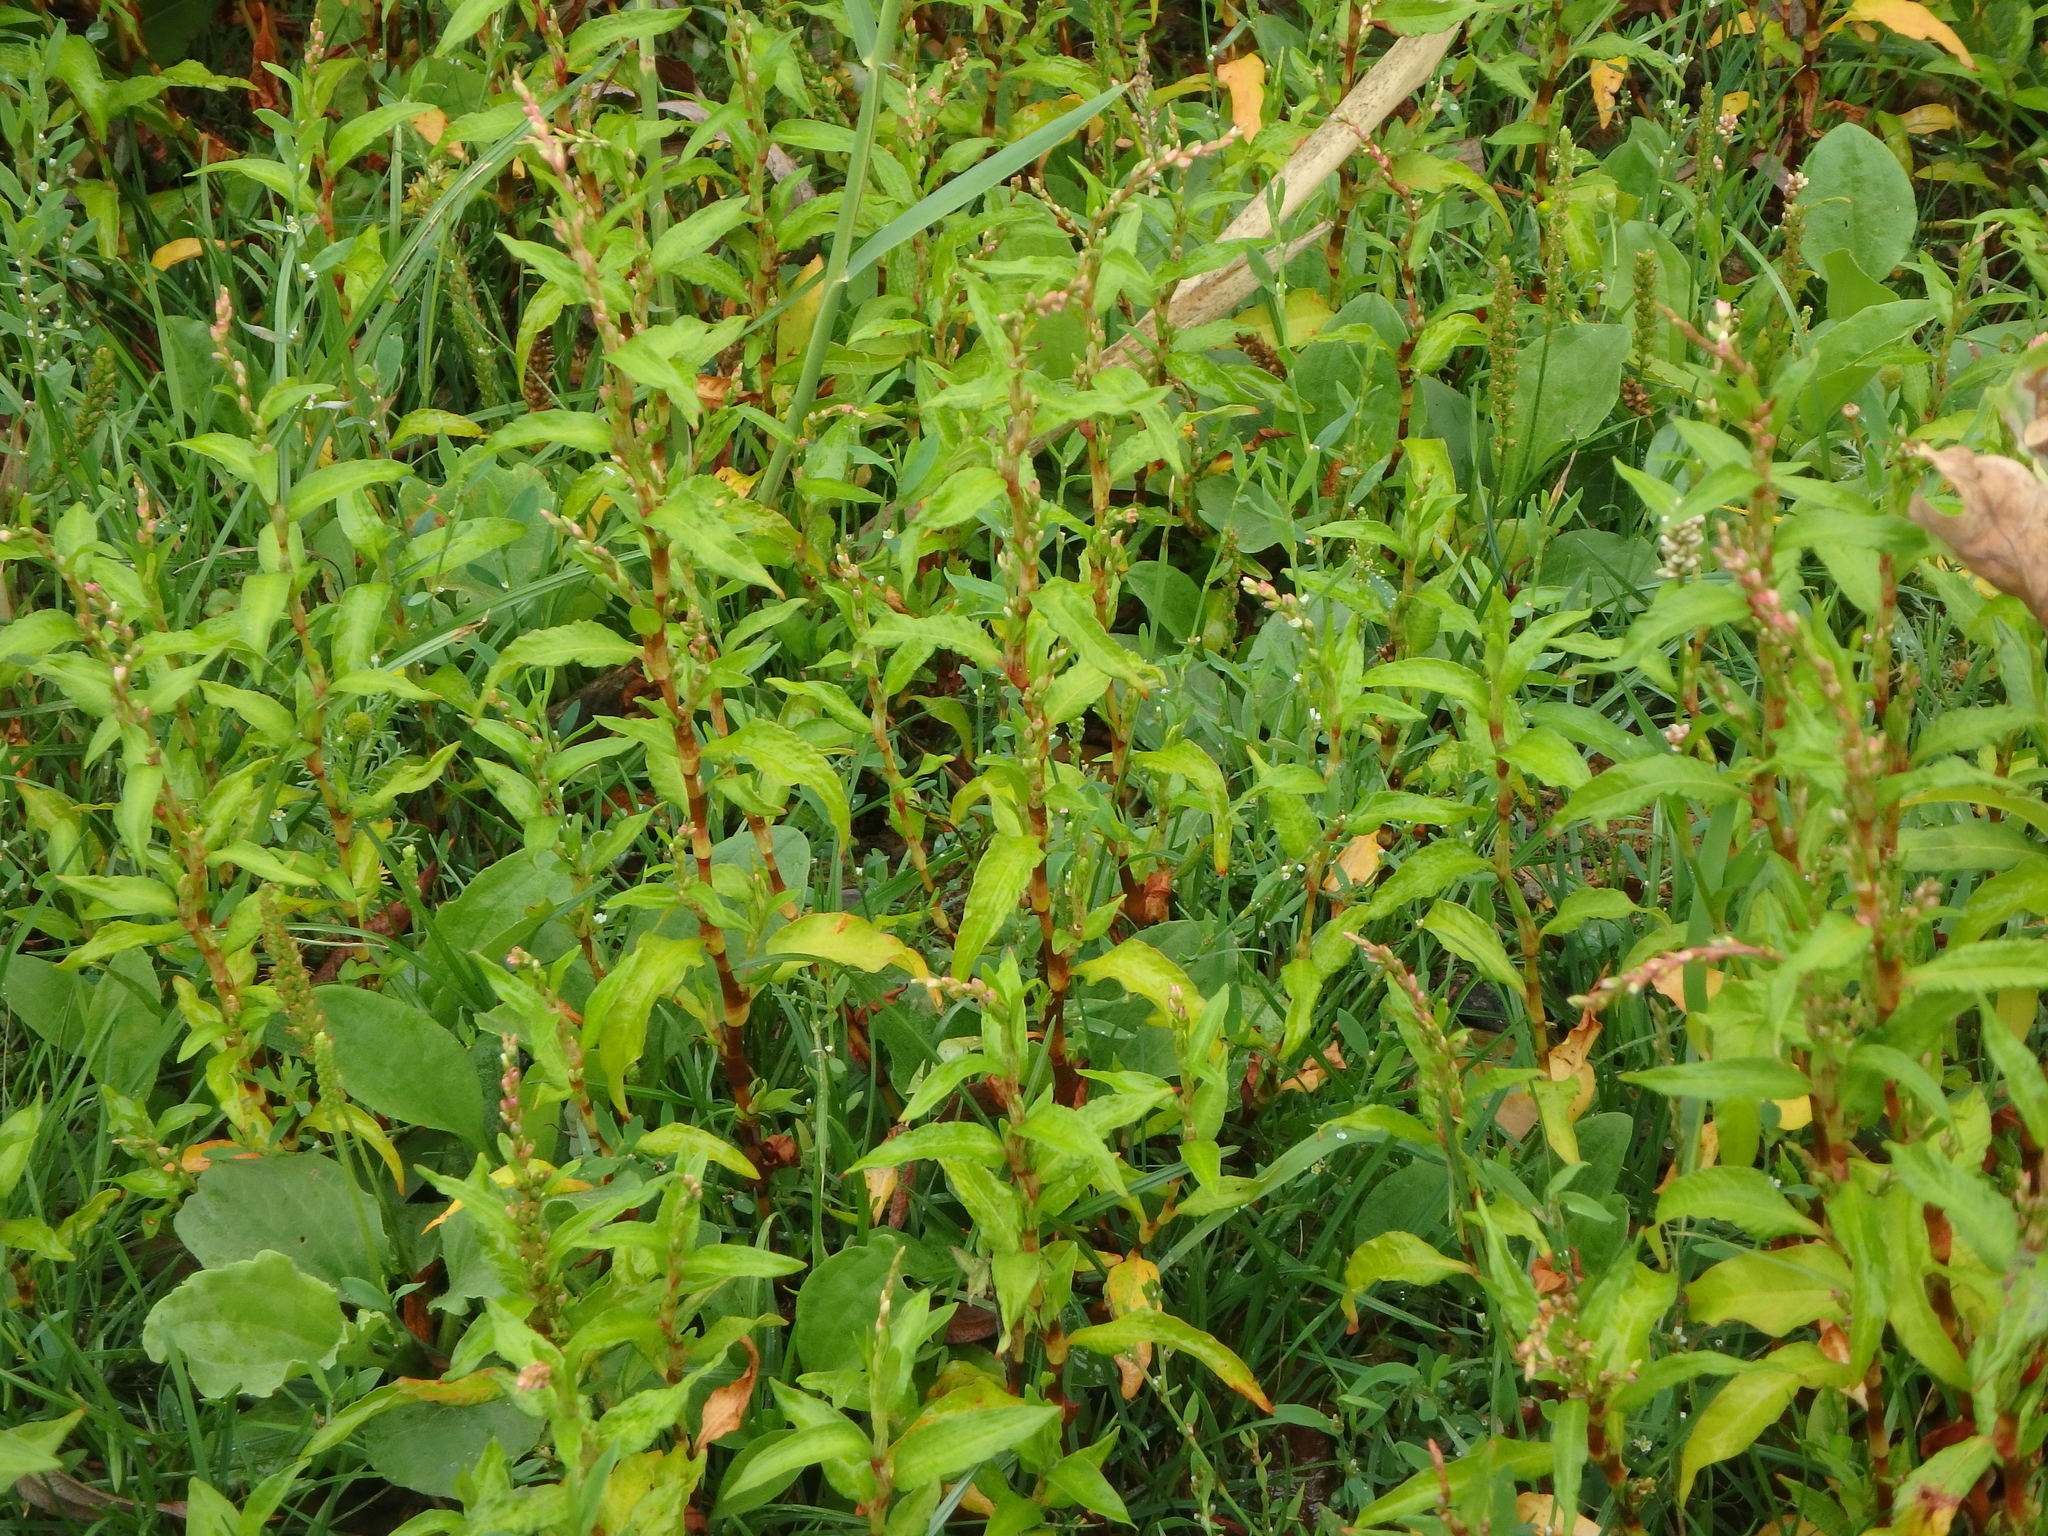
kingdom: Plantae
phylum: Tracheophyta
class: Magnoliopsida
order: Caryophyllales
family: Polygonaceae
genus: Persicaria
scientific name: Persicaria hydropiper
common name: Water-pepper
